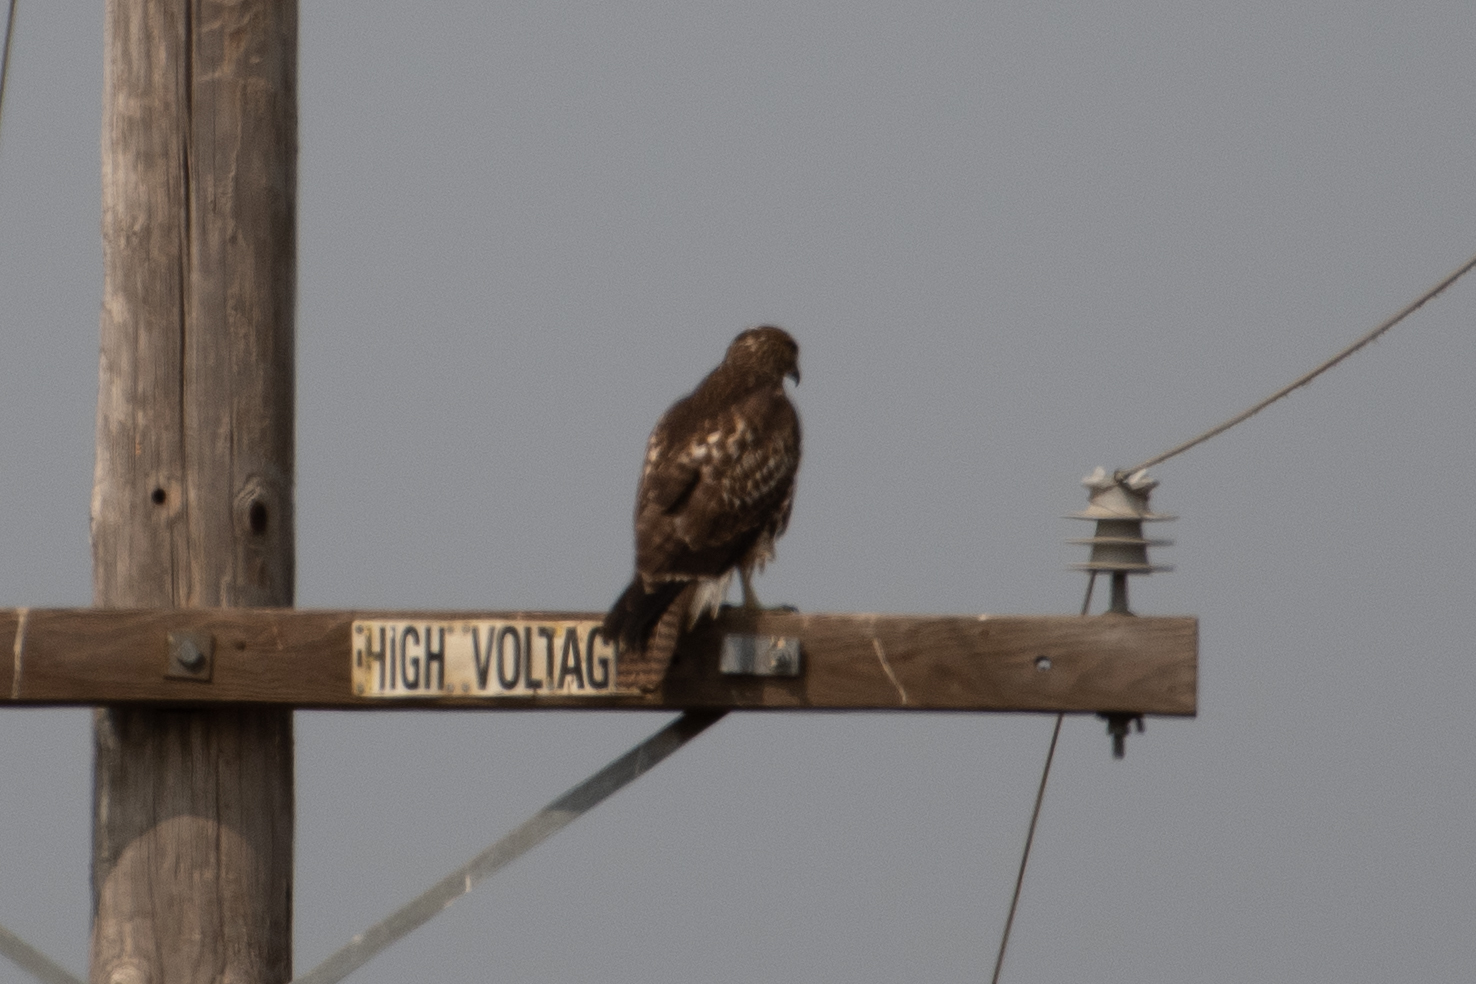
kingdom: Animalia
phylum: Chordata
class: Aves
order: Accipitriformes
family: Accipitridae
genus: Buteo
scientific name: Buteo jamaicensis
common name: Red-tailed hawk
